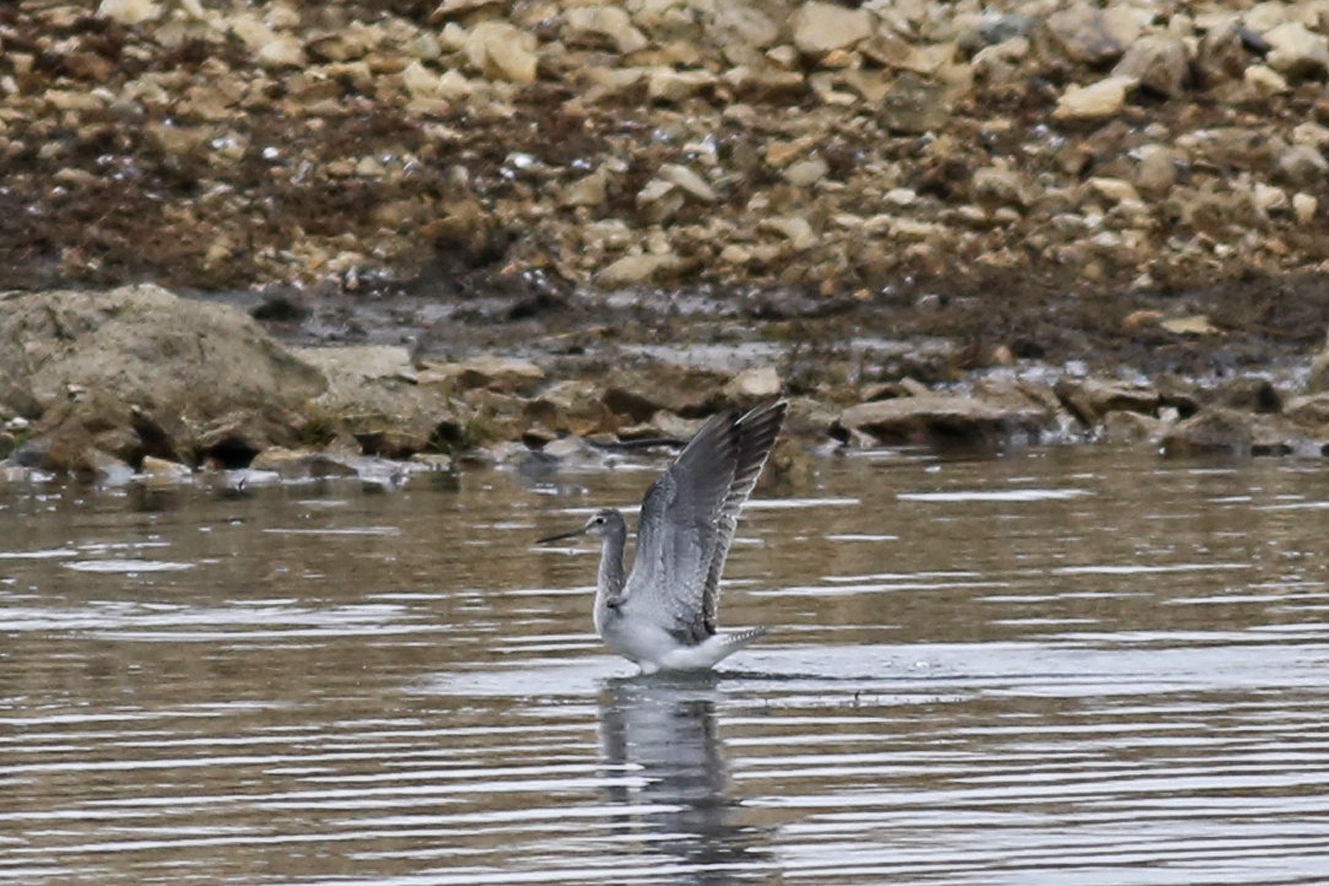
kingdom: Animalia
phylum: Chordata
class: Aves
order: Charadriiformes
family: Scolopacidae
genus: Tringa
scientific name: Tringa melanoleuca
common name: Greater yellowlegs
